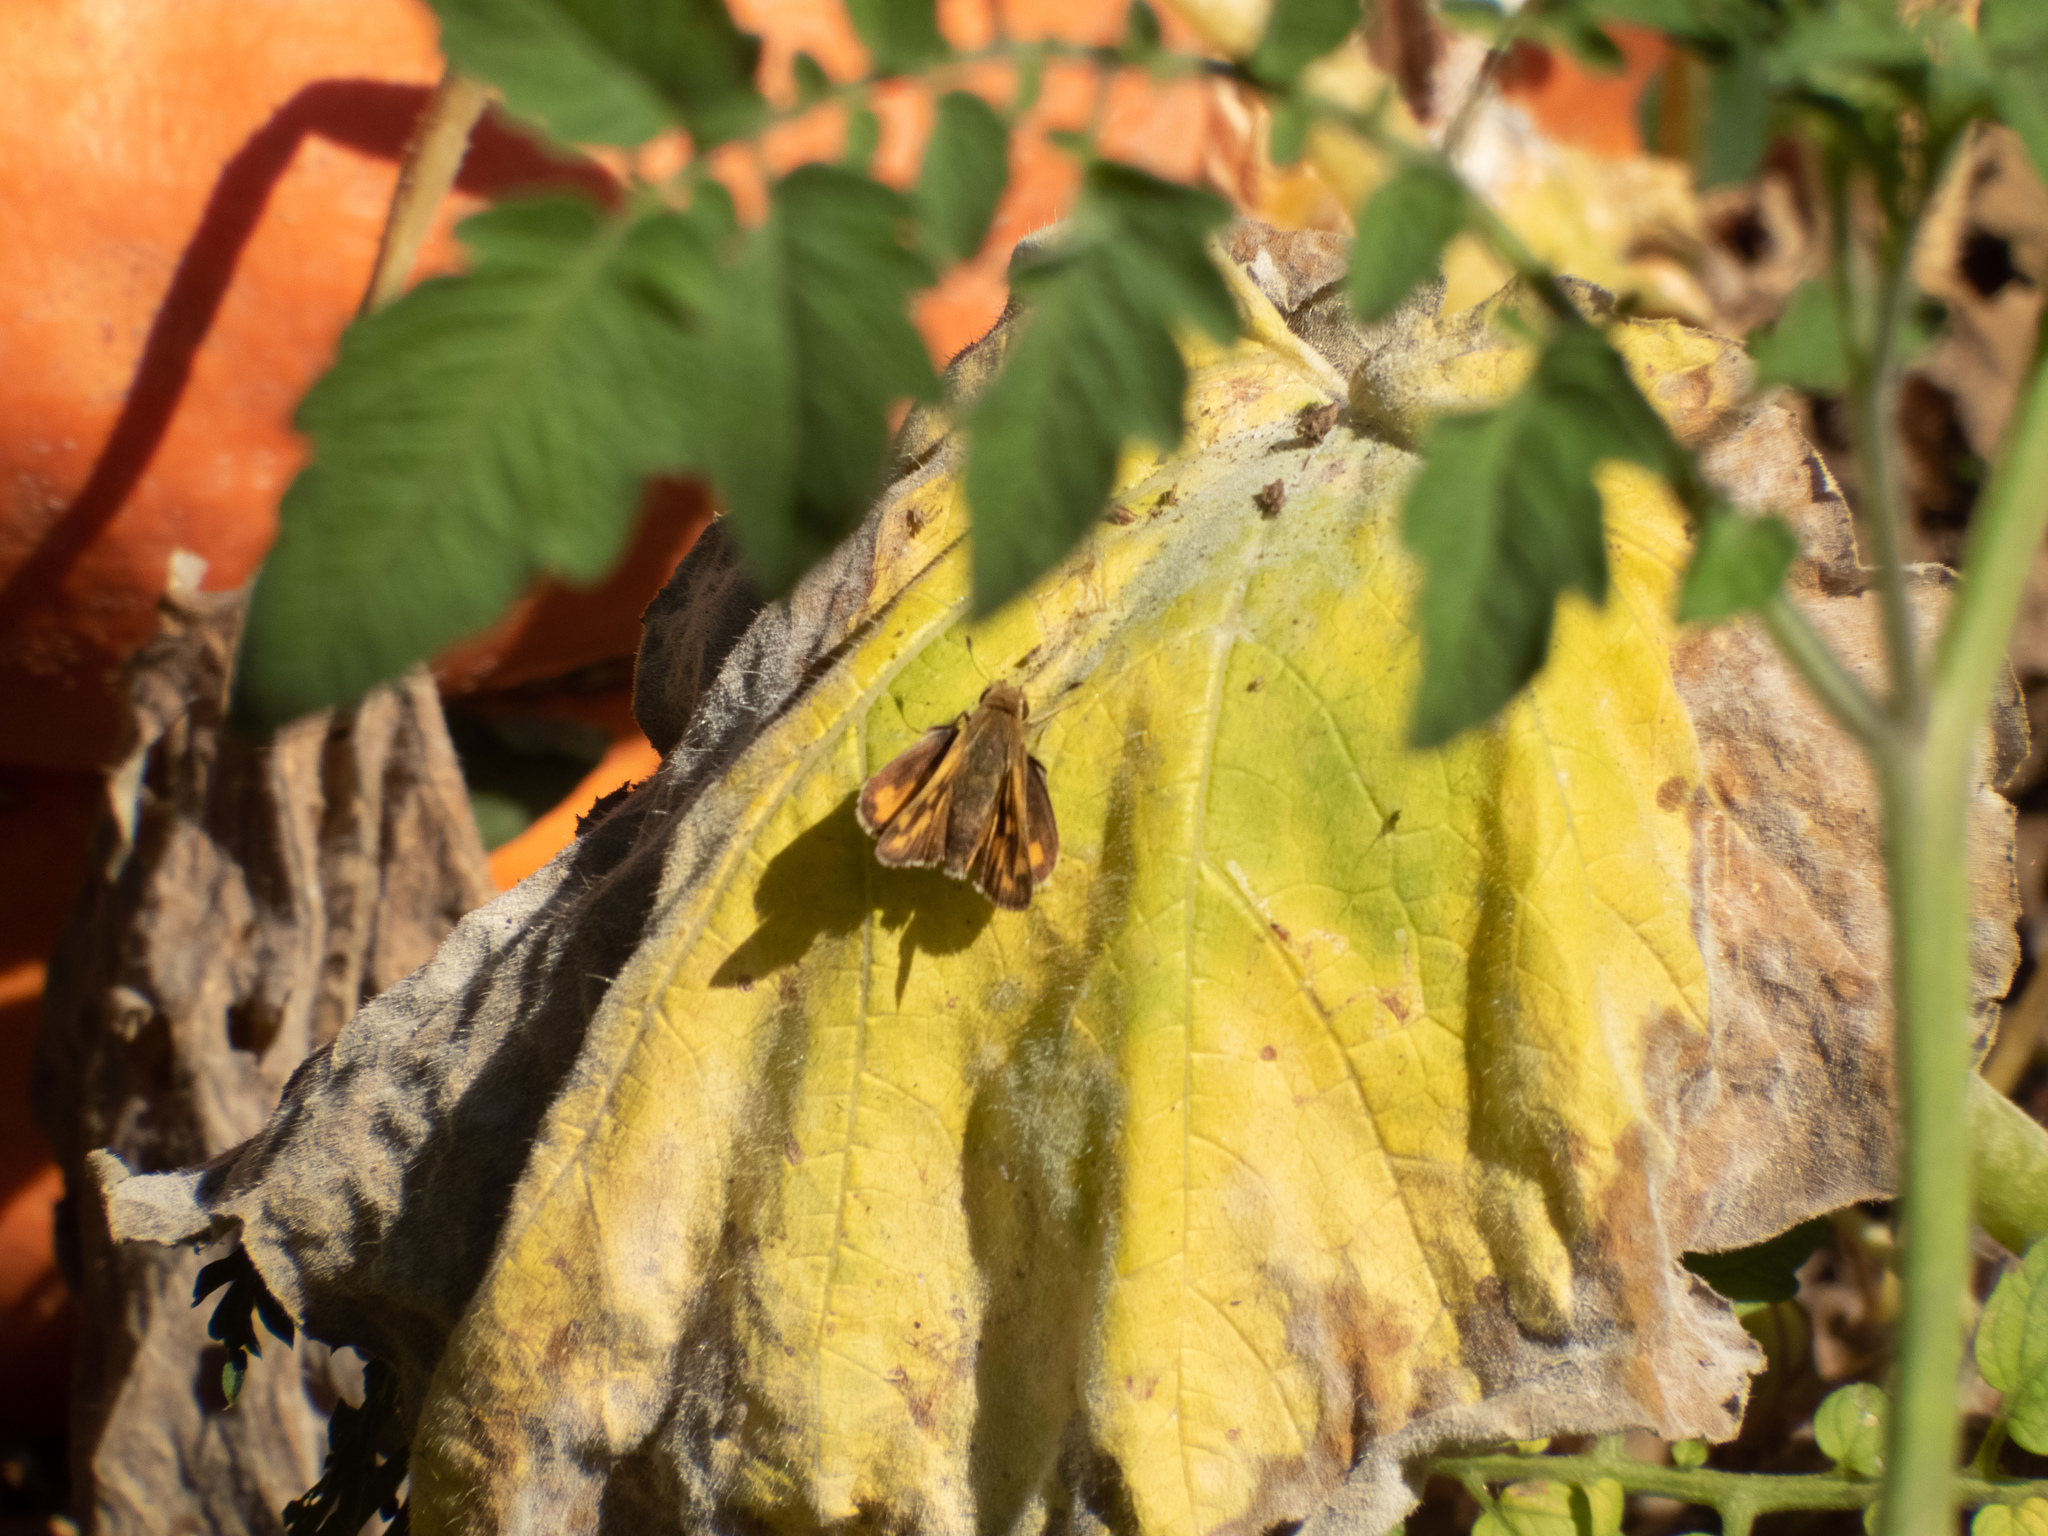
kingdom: Animalia
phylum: Arthropoda
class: Insecta
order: Lepidoptera
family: Hesperiidae
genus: Hylephila
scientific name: Hylephila phyleus
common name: Fiery skipper
